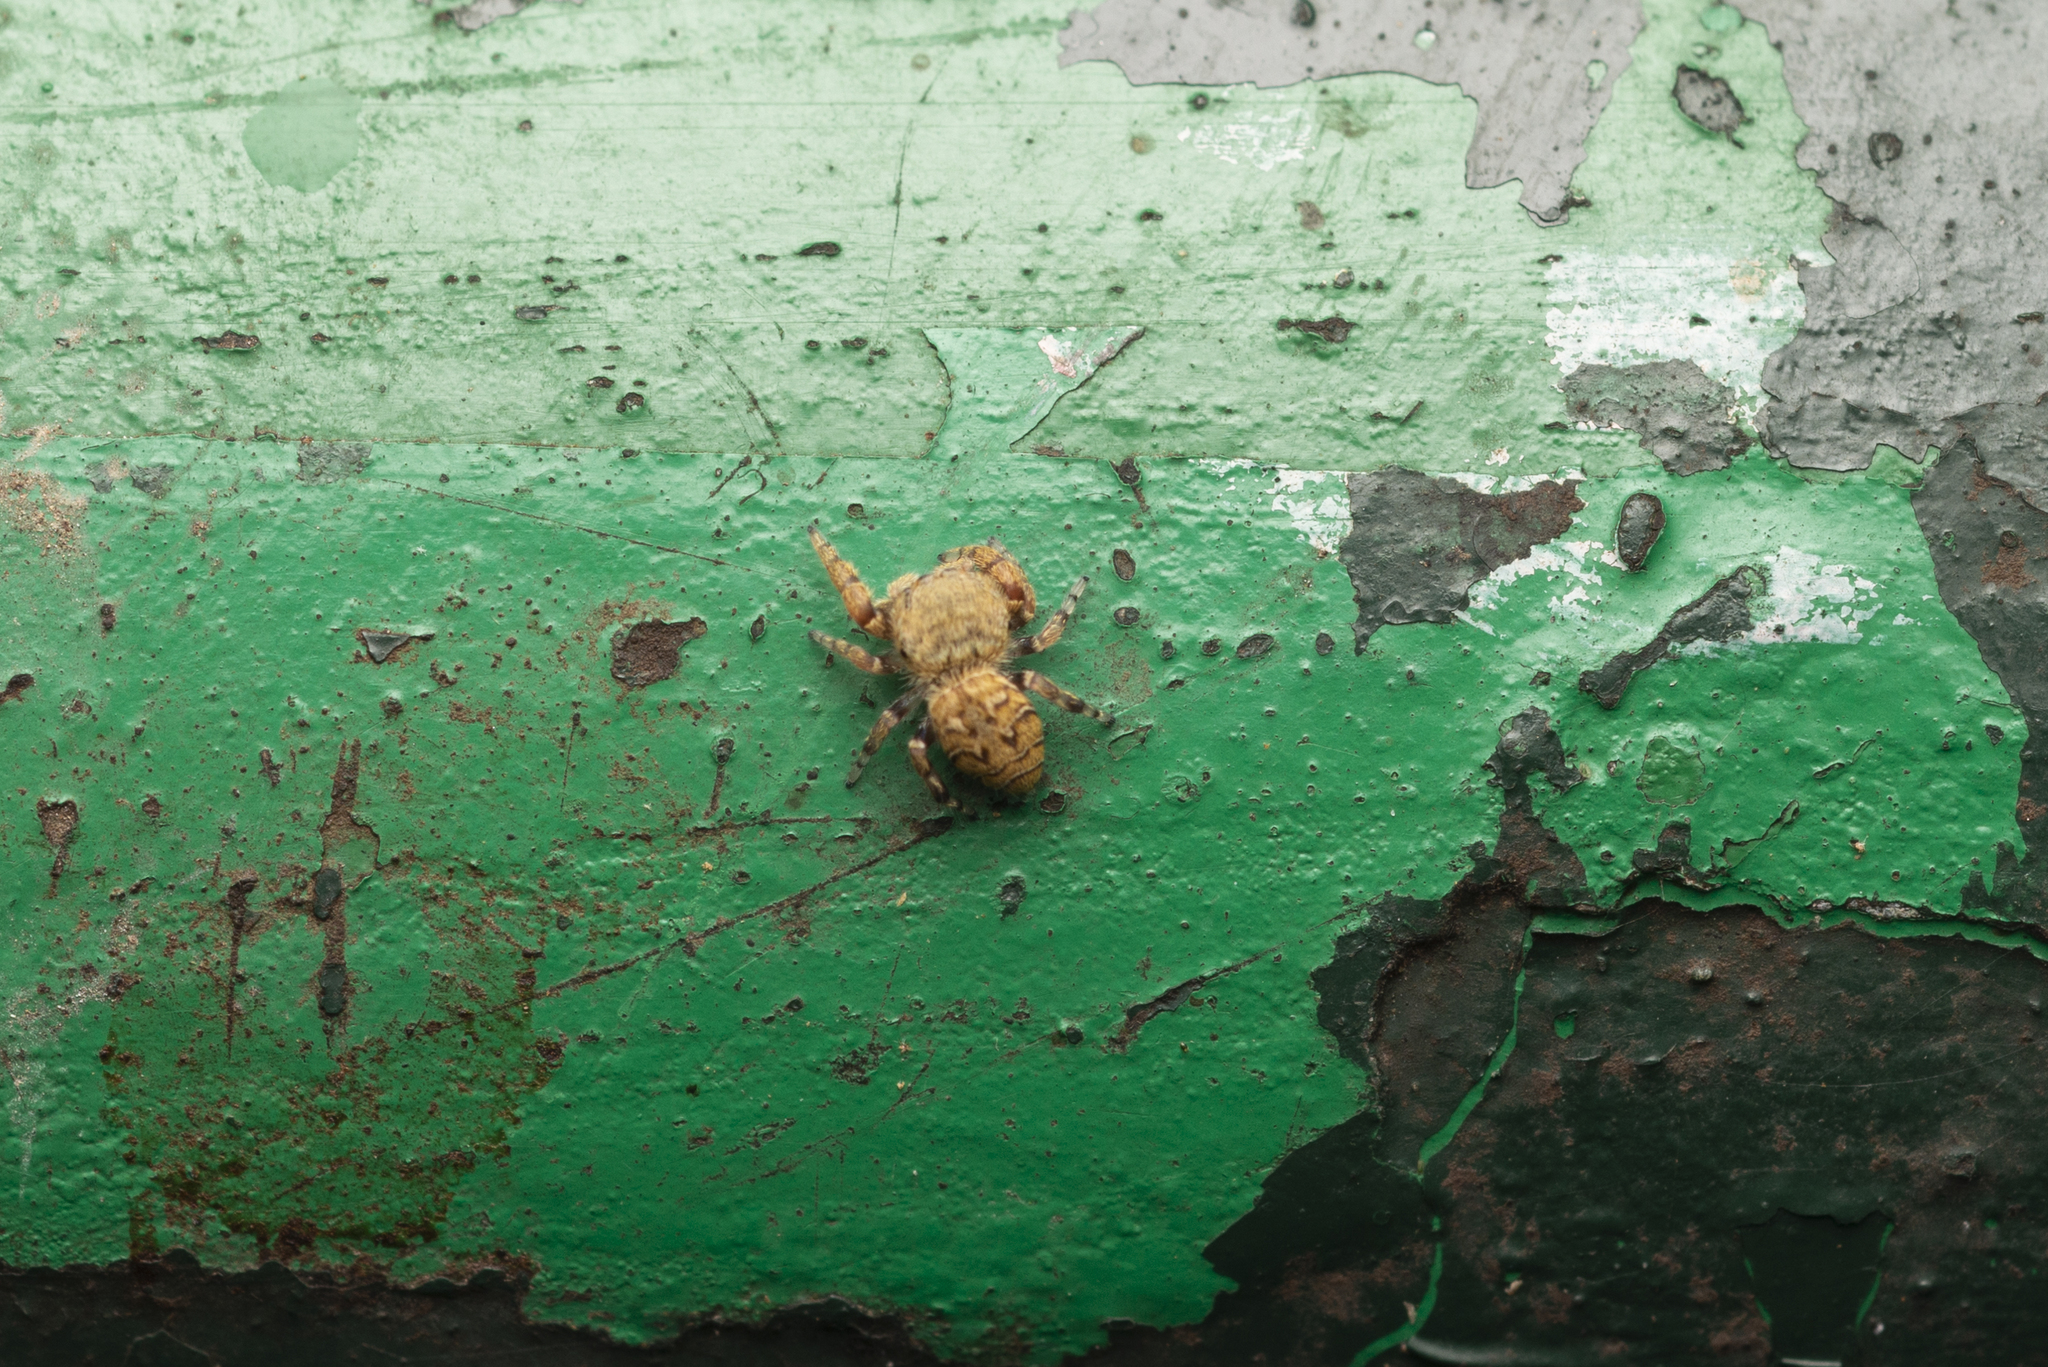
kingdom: Animalia
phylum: Arthropoda
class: Arachnida
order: Araneae
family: Salticidae
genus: Rhene
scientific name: Rhene flavicomans
